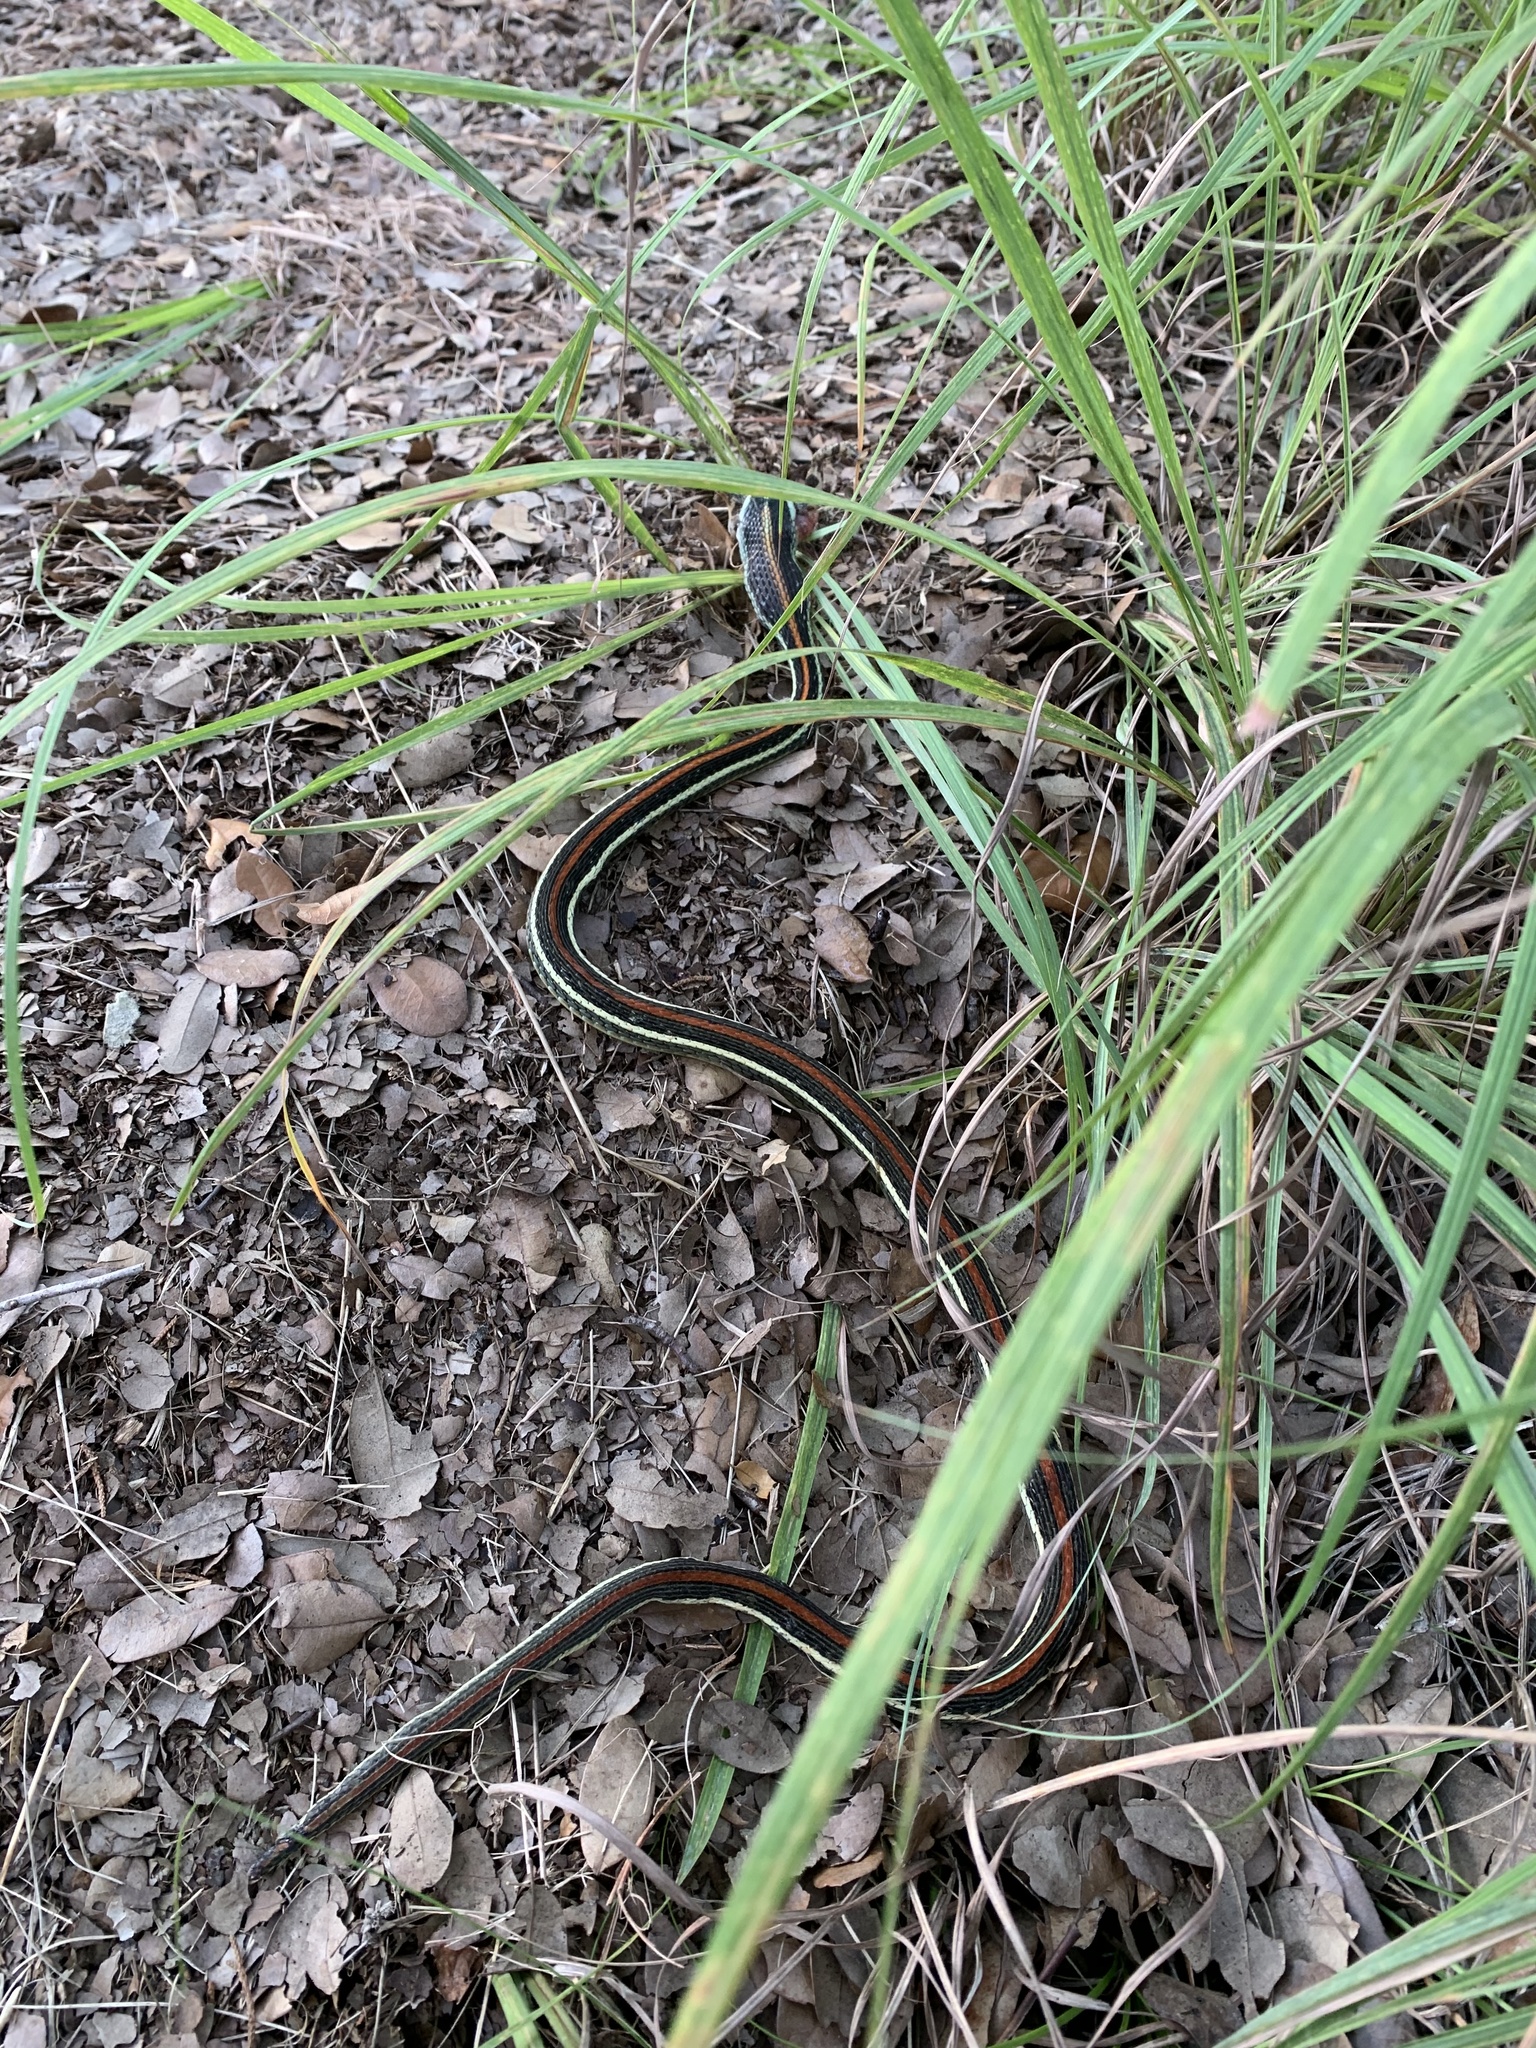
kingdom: Animalia
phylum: Chordata
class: Squamata
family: Colubridae
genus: Thamnophis
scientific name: Thamnophis proximus
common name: Western ribbon snake
